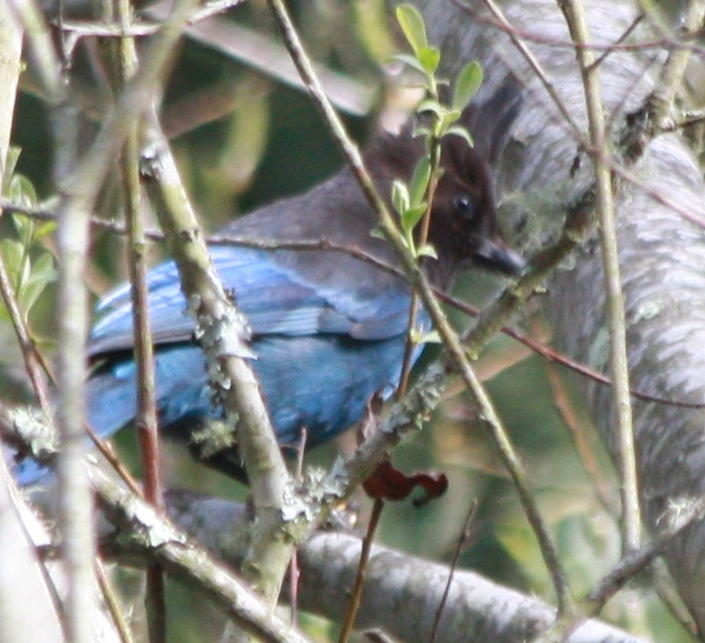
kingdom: Animalia
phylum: Chordata
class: Aves
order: Passeriformes
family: Corvidae
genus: Cyanocitta
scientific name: Cyanocitta stelleri
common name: Steller's jay
